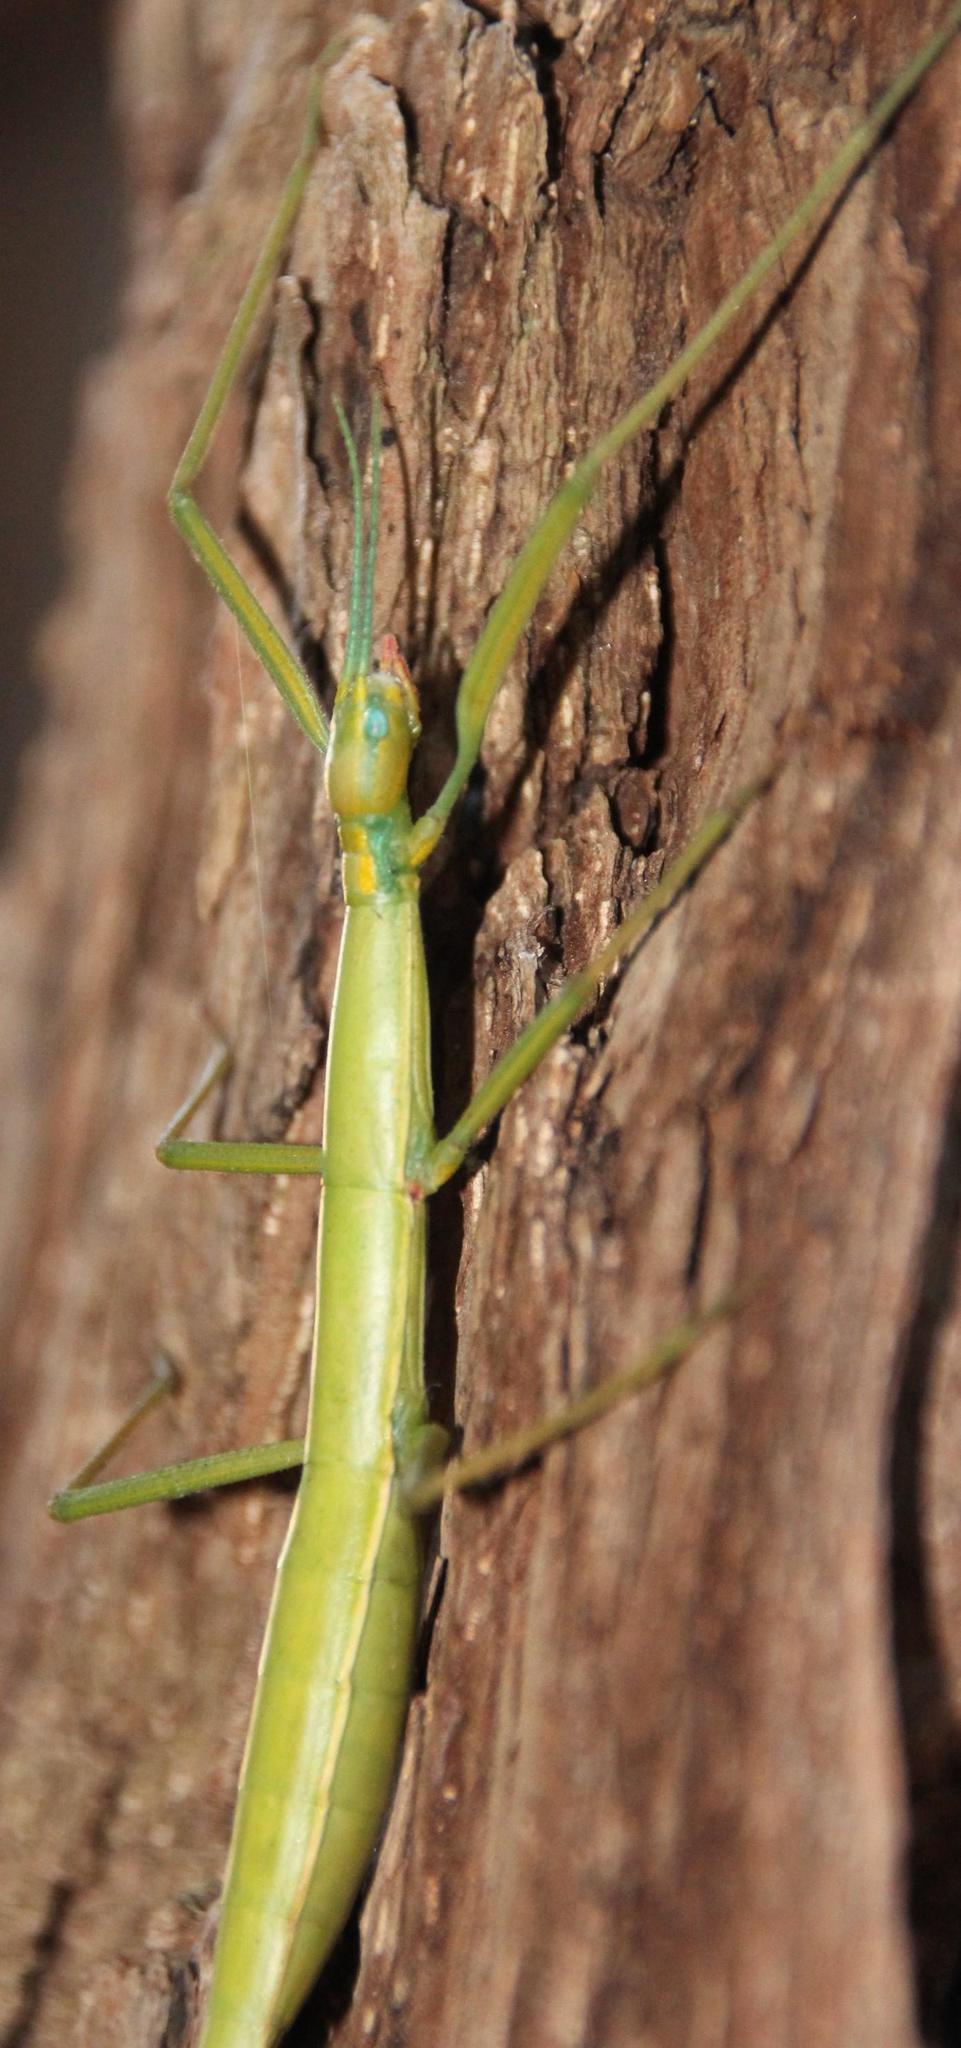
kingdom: Animalia
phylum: Arthropoda
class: Insecta
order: Phasmida
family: Bacillidae
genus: Macynia
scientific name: Macynia labiata
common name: Thunberg's stick insect
